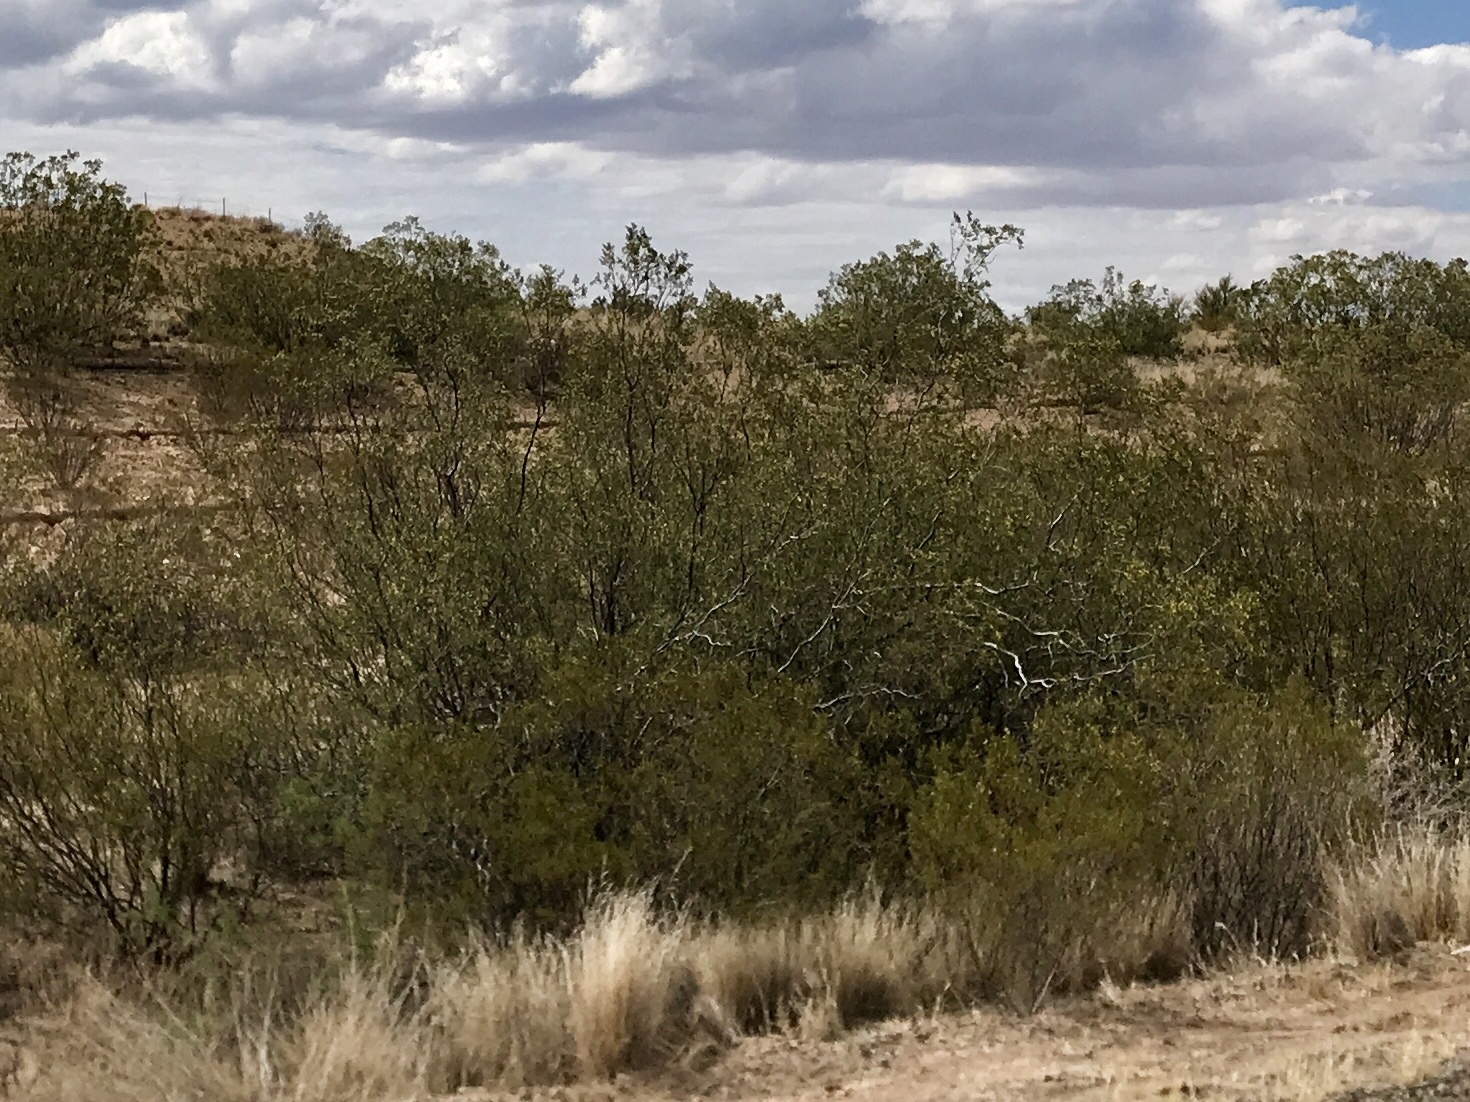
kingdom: Plantae
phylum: Tracheophyta
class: Magnoliopsida
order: Zygophyllales
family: Zygophyllaceae
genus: Larrea
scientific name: Larrea tridentata
